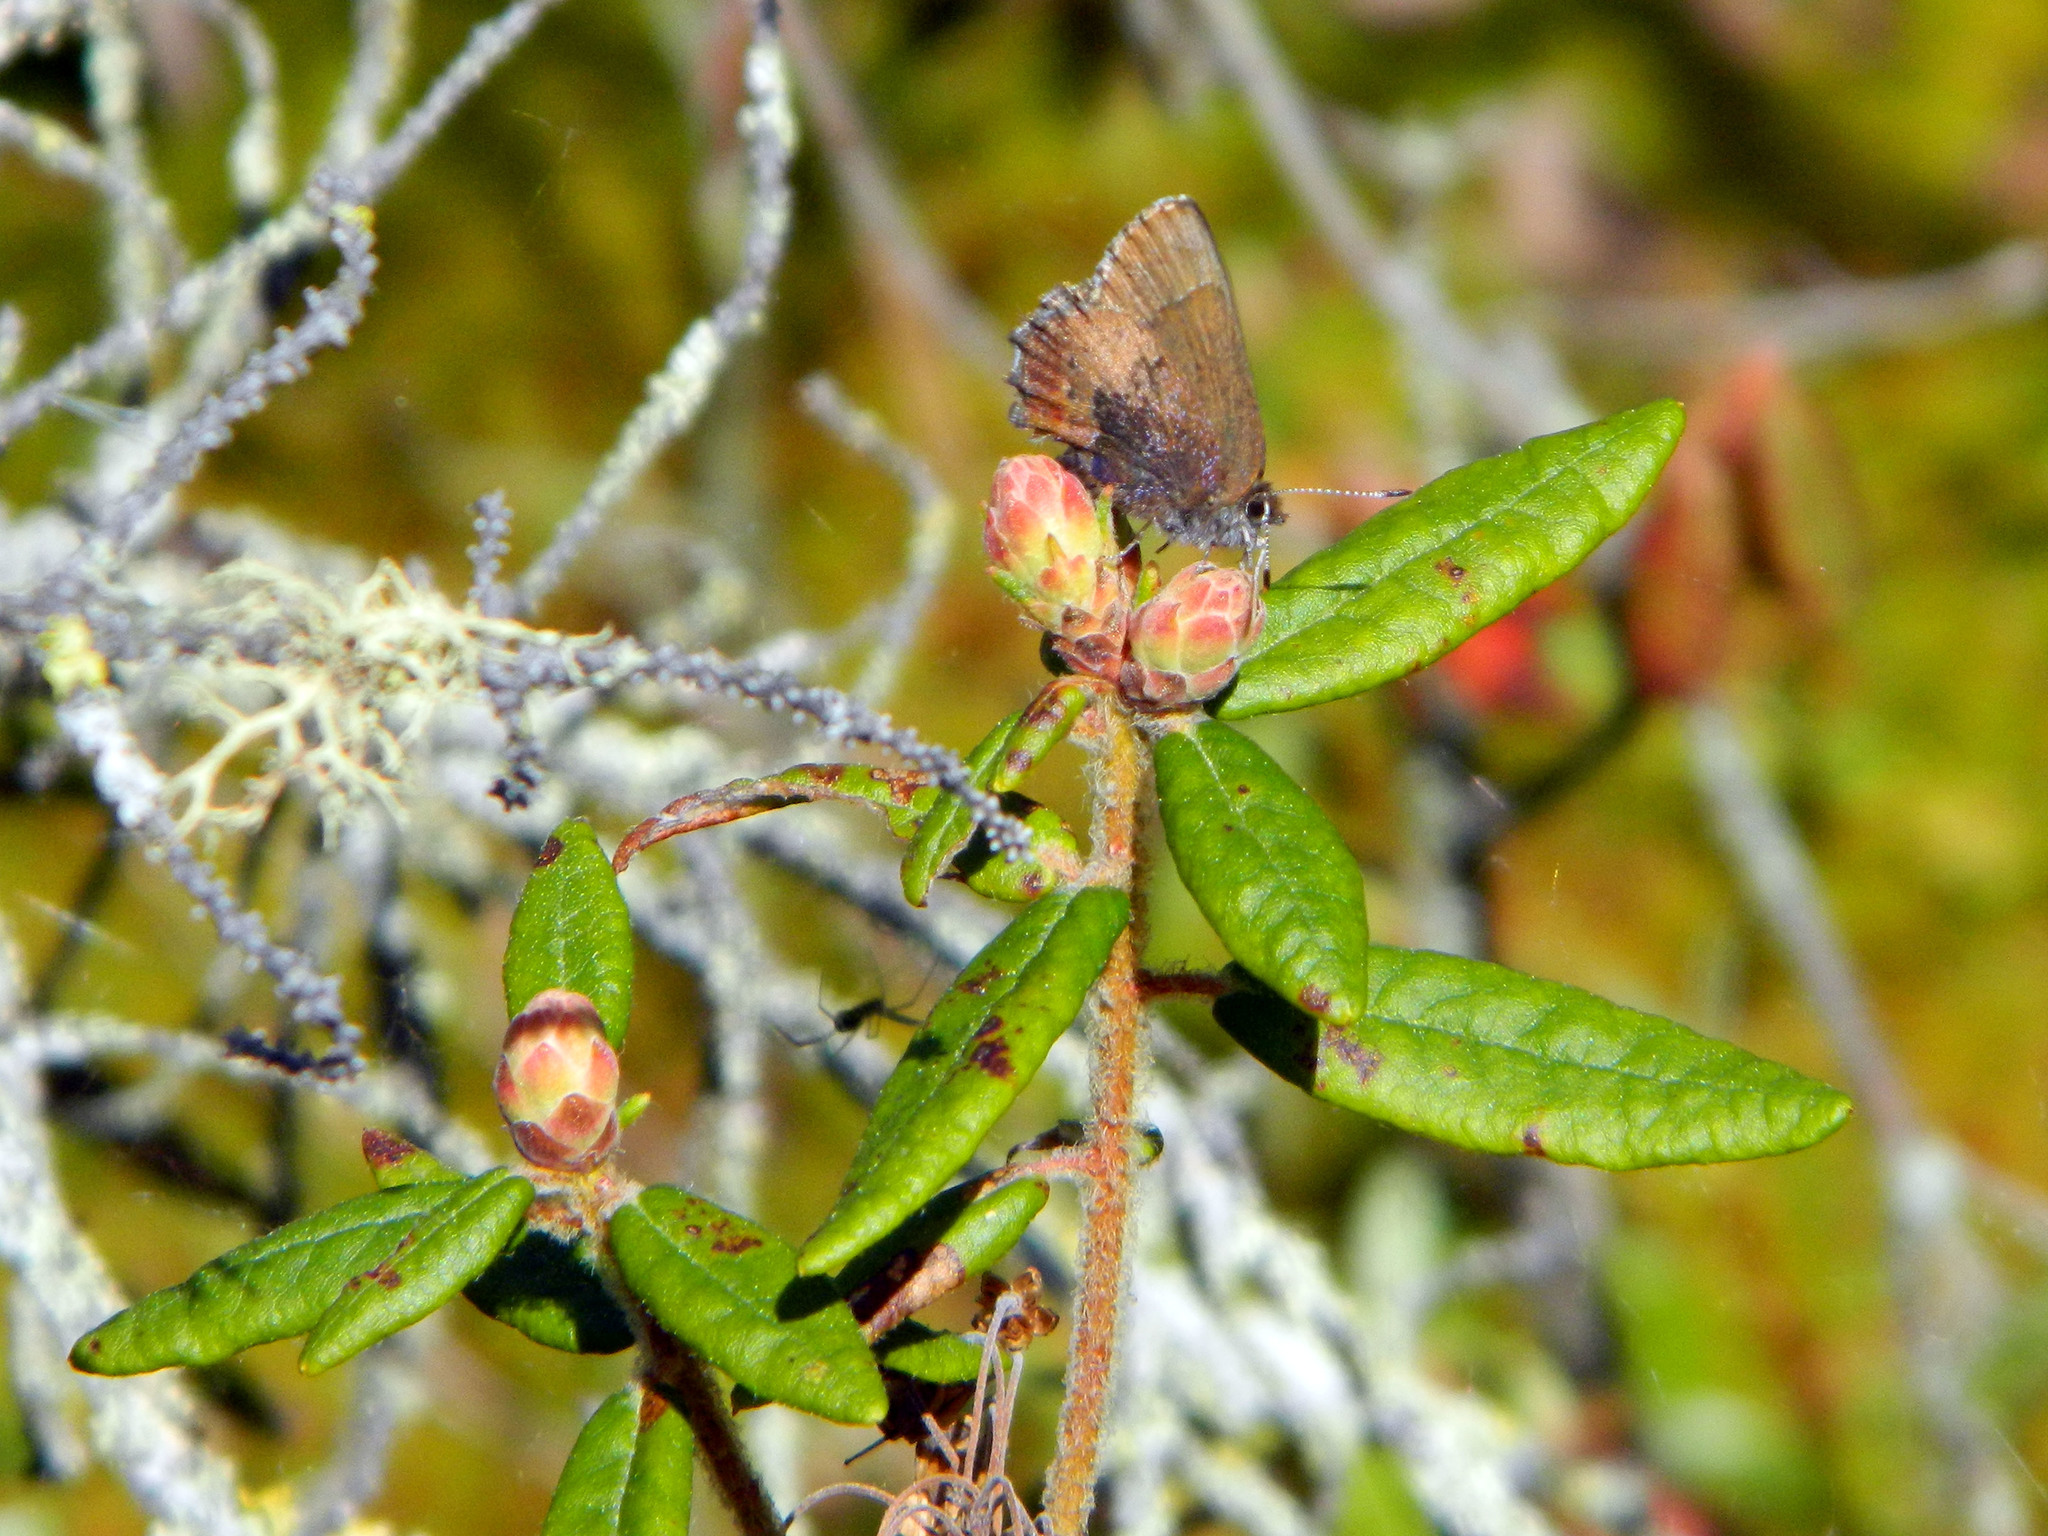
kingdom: Animalia
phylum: Arthropoda
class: Insecta
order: Lepidoptera
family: Lycaenidae
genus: Incisalia
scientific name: Incisalia irioides
